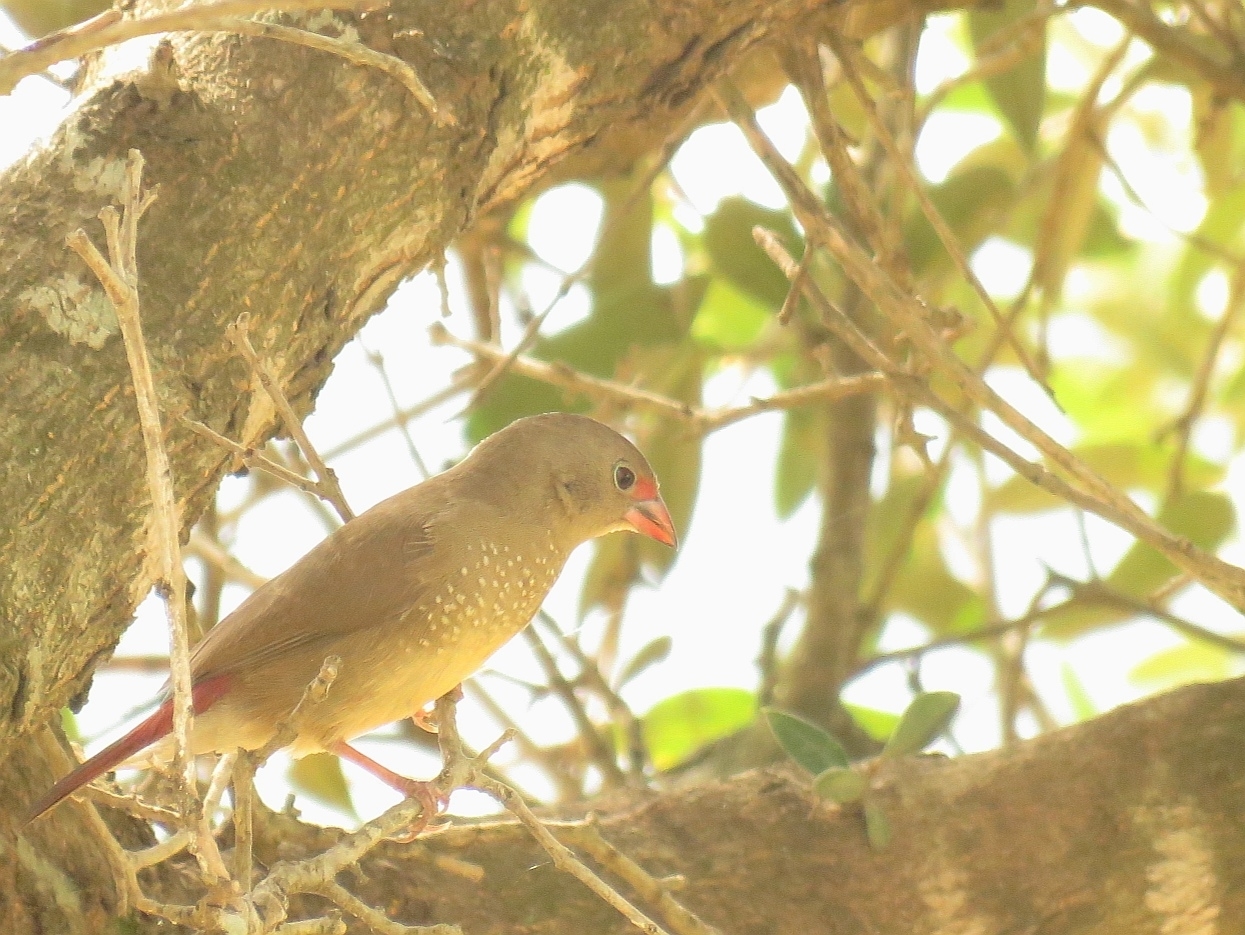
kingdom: Animalia
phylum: Chordata
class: Aves
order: Passeriformes
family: Estrildidae
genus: Lagonosticta
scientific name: Lagonosticta senegala
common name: Red-billed firefinch
